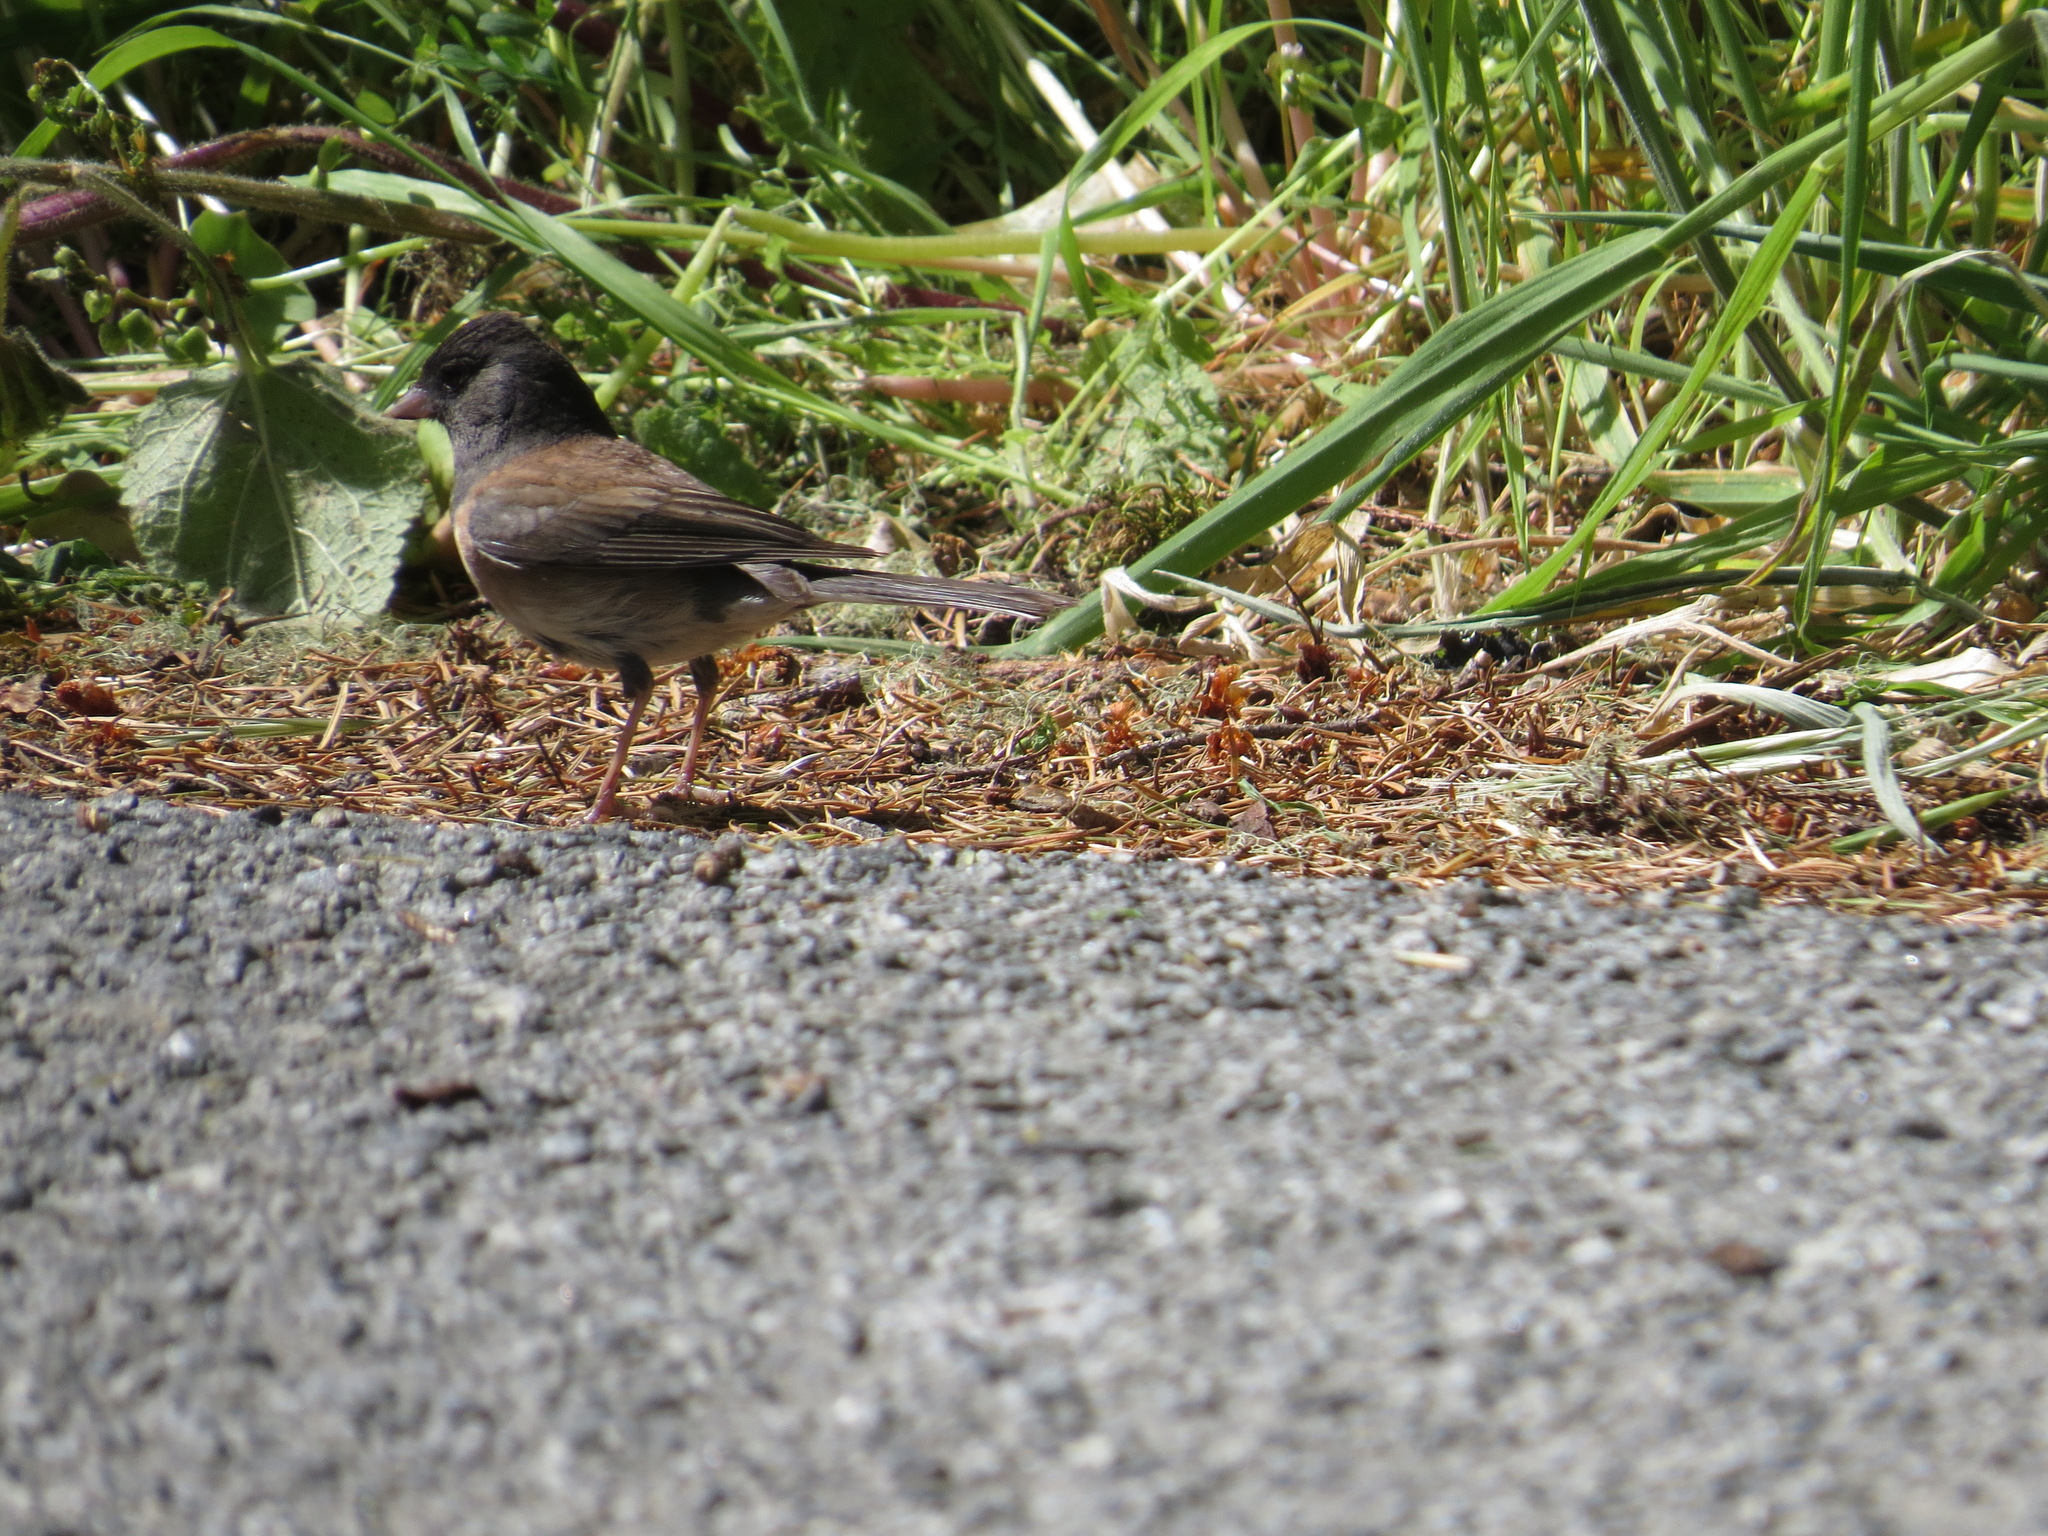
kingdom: Animalia
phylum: Chordata
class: Aves
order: Passeriformes
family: Passerellidae
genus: Junco
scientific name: Junco hyemalis
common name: Dark-eyed junco
